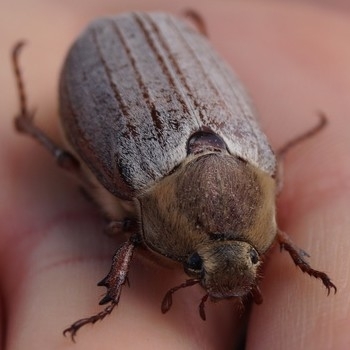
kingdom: Animalia
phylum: Arthropoda
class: Insecta
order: Coleoptera
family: Scarabaeidae
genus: Melolontha
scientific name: Melolontha melolontha
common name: Cockchafer maybeetle
